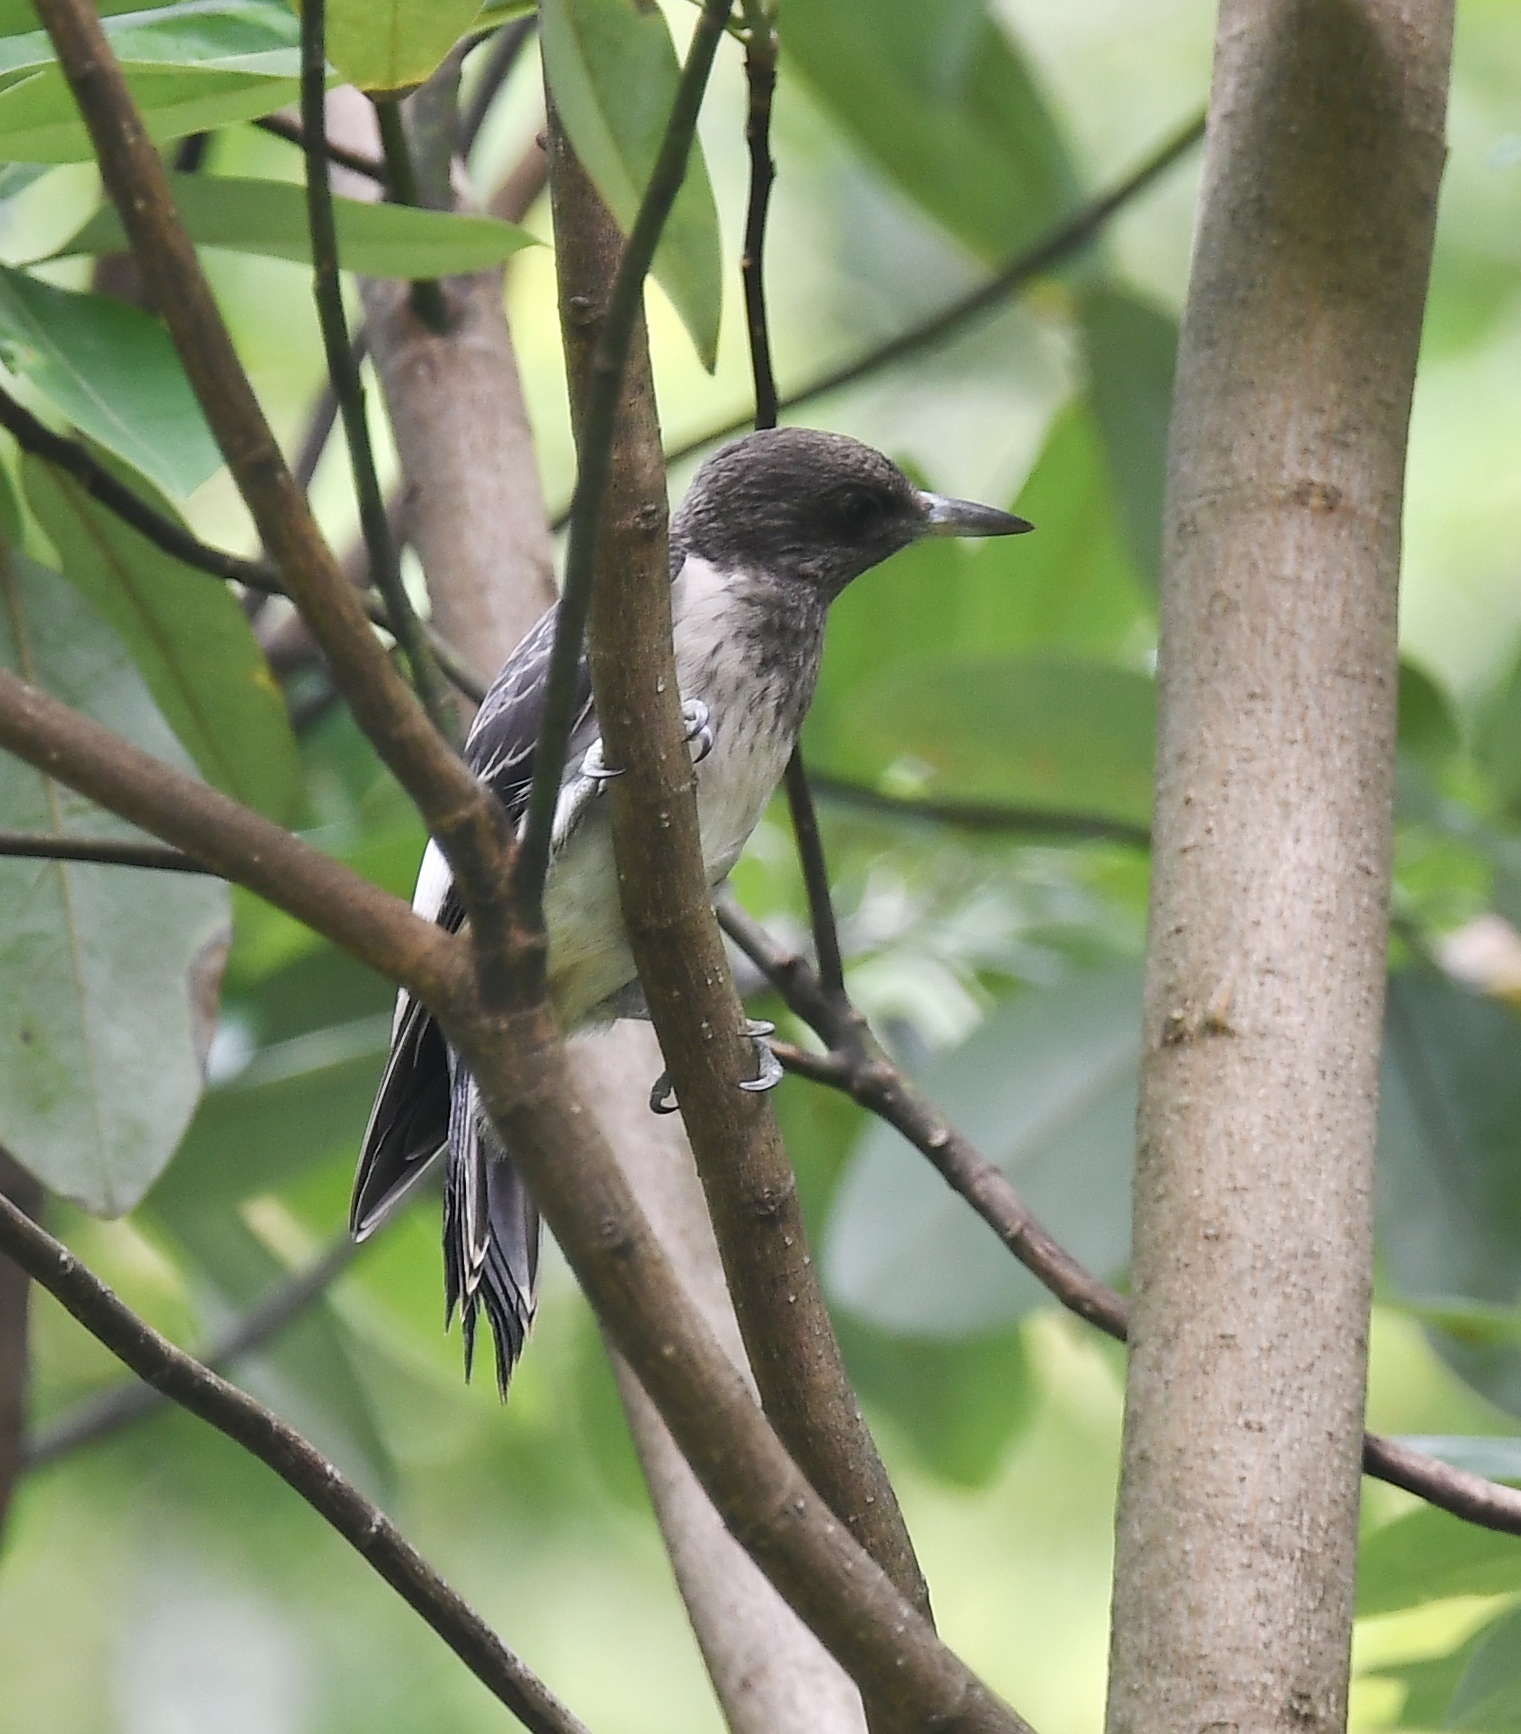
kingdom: Animalia
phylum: Chordata
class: Aves
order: Piciformes
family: Picidae
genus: Melanerpes
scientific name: Melanerpes erythrocephalus
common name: Red-headed woodpecker
